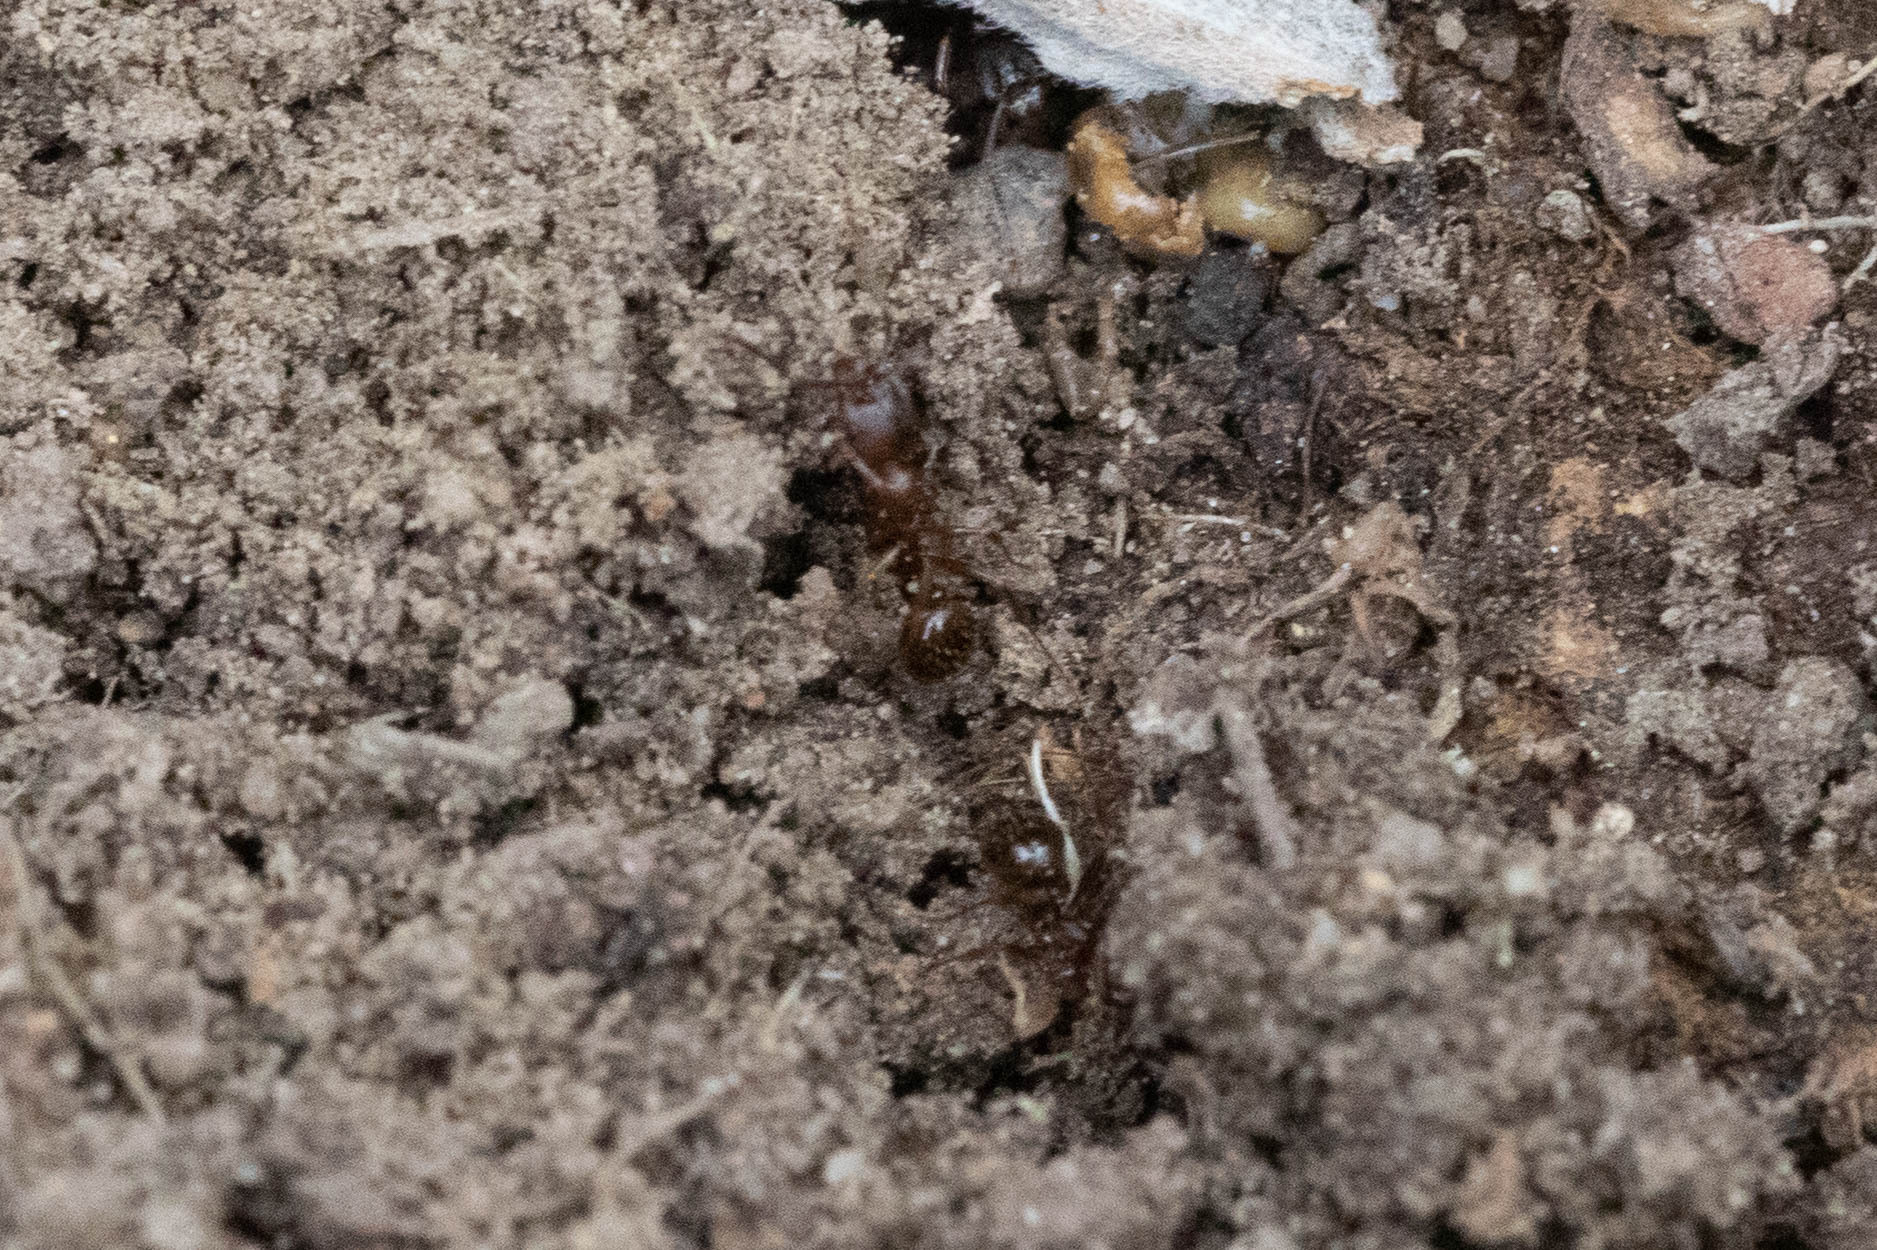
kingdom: Animalia
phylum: Arthropoda
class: Insecta
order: Hymenoptera
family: Formicidae
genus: Aphaenogaster
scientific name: Aphaenogaster occidentalis
